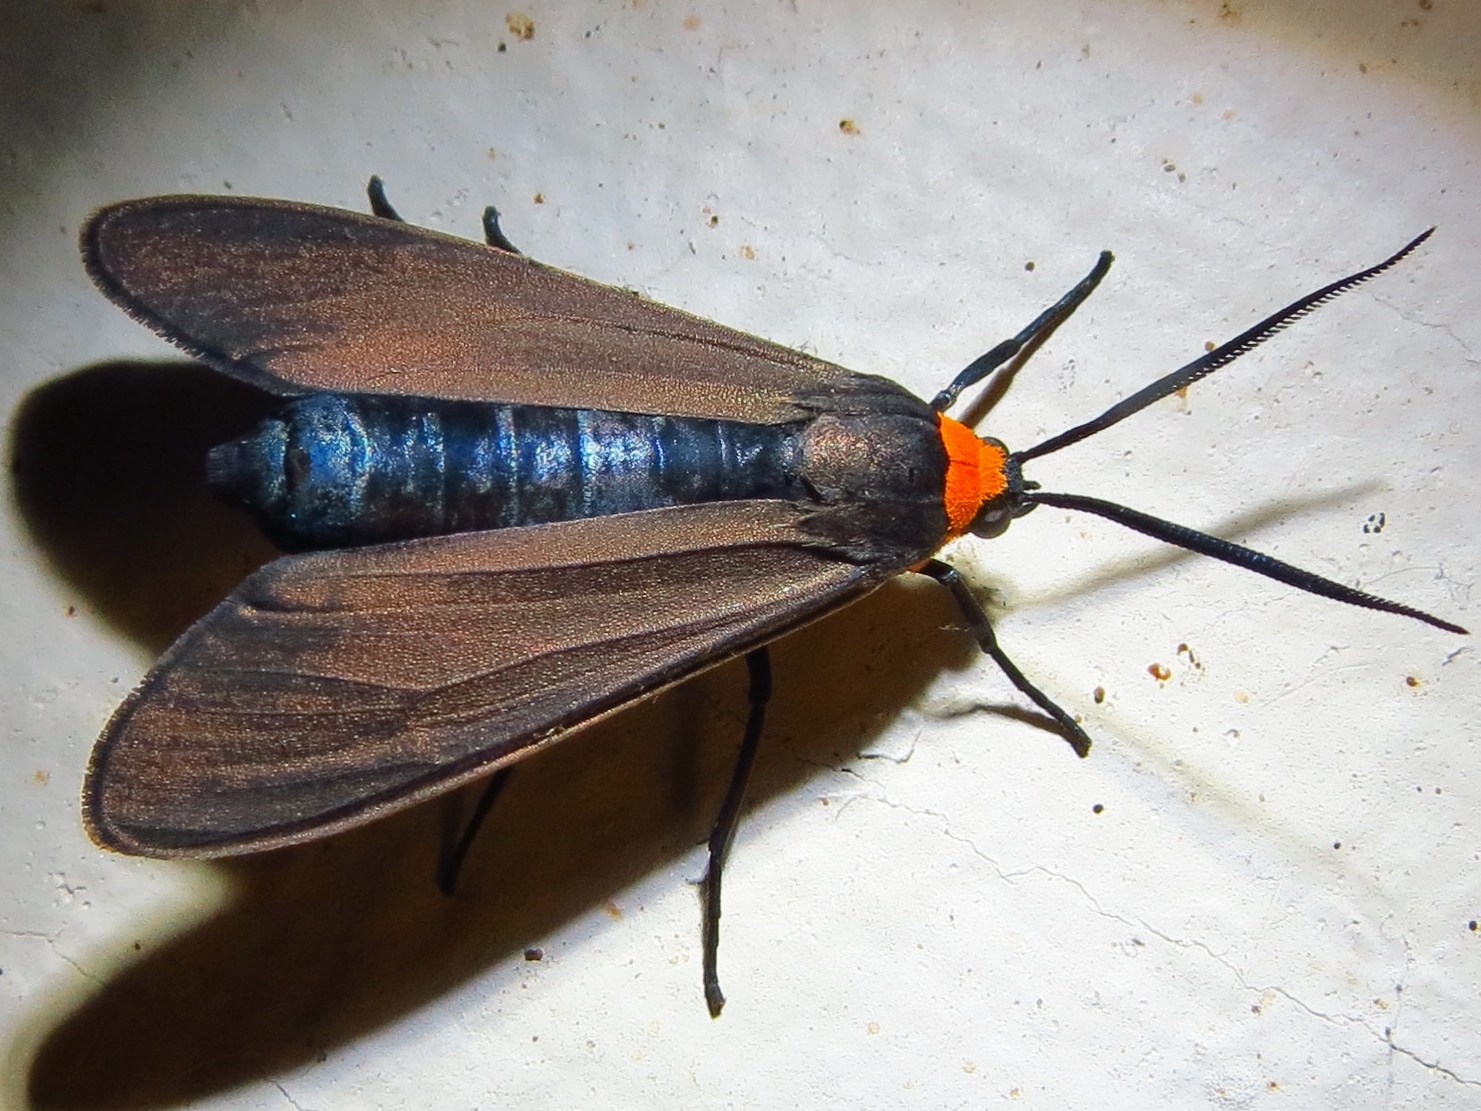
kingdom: Animalia
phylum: Arthropoda
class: Insecta
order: Lepidoptera
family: Erebidae
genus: Cisseps
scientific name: Cisseps fulvicollis
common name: Yellow-collared scape moth
